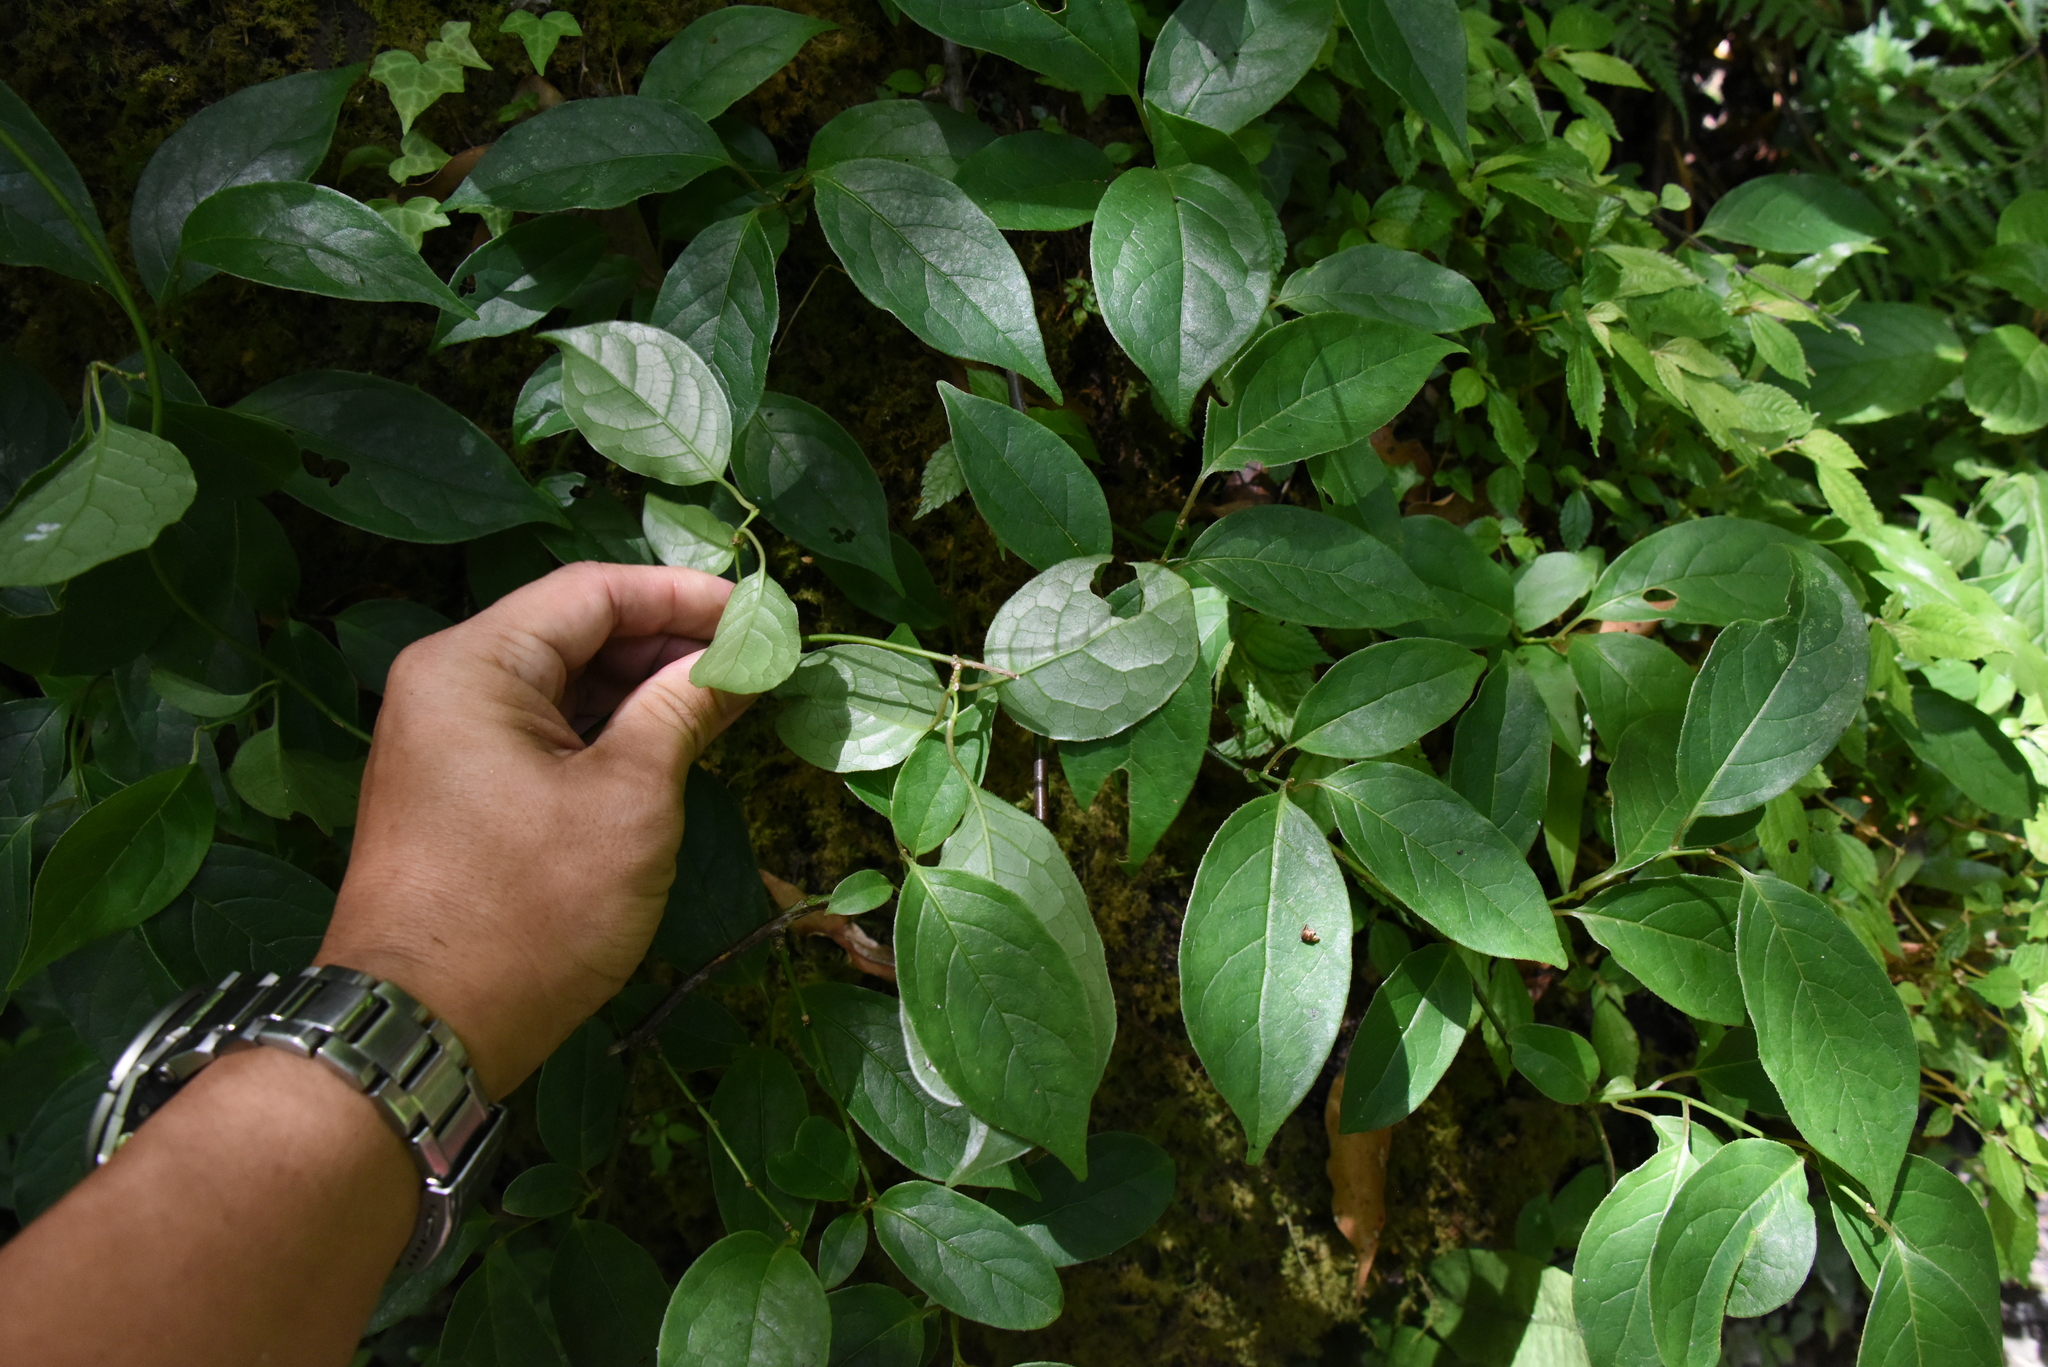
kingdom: Plantae
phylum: Tracheophyta
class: Magnoliopsida
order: Proteales
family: Sabiaceae
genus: Sabia
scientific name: Sabia transarisanensis
